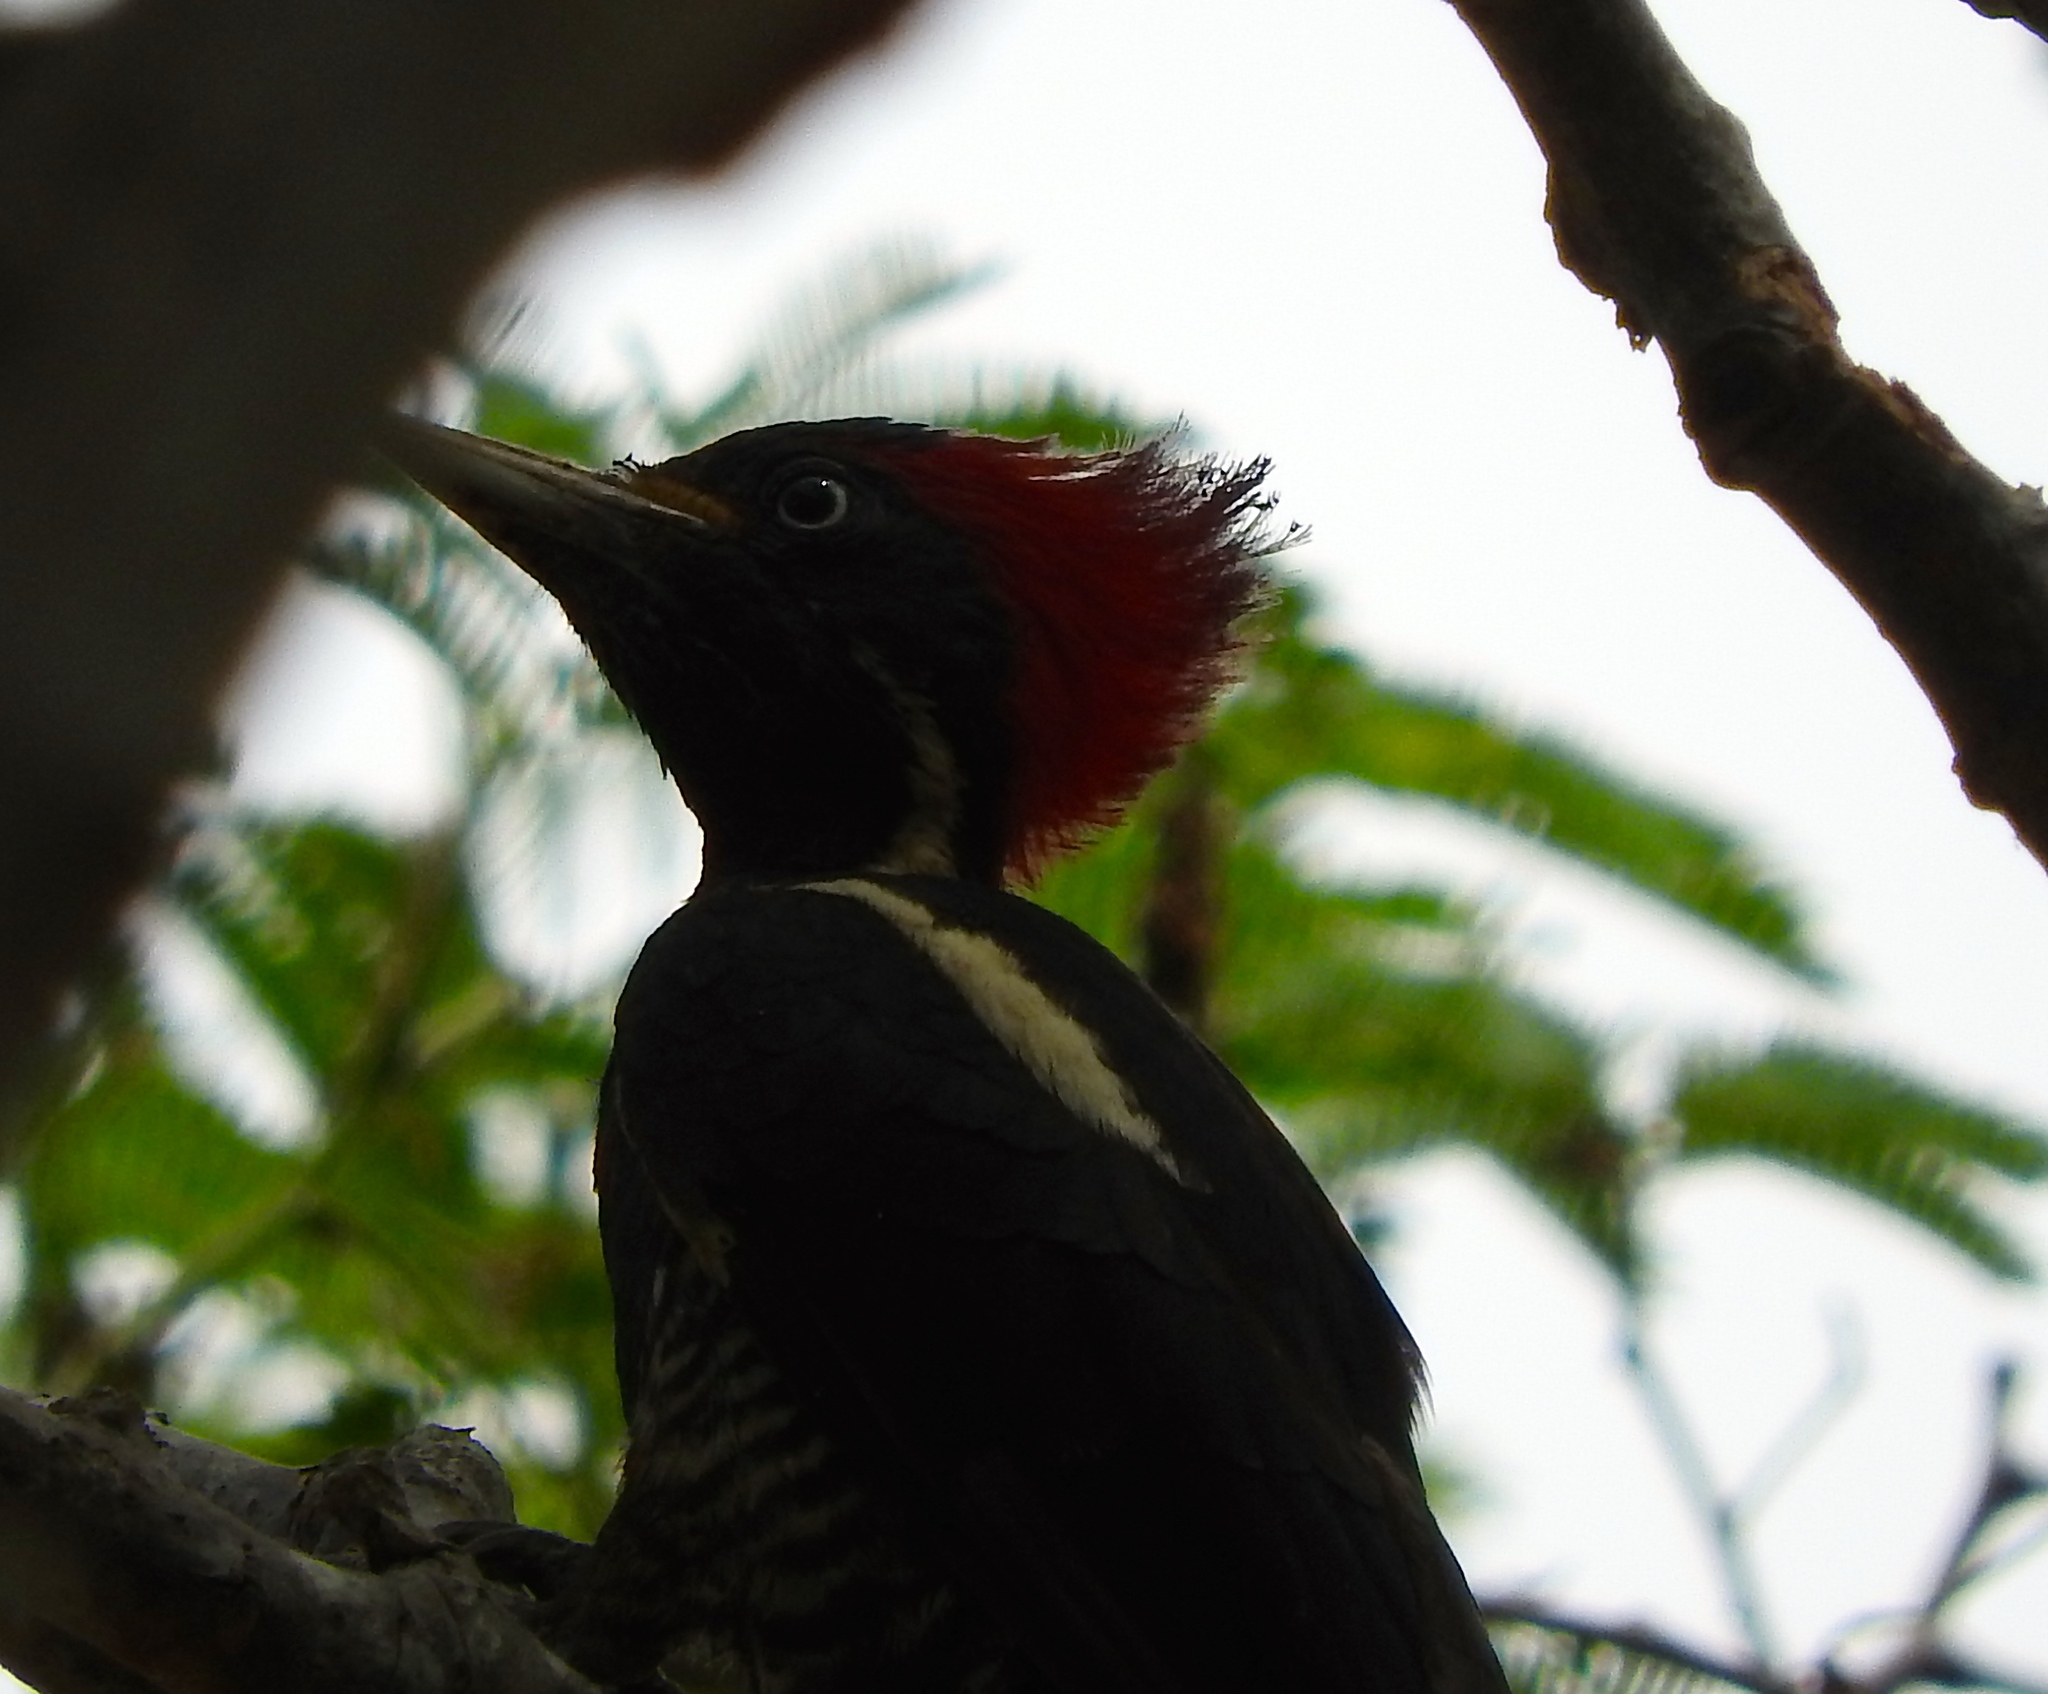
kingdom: Animalia
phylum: Chordata
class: Aves
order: Piciformes
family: Picidae
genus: Dryocopus
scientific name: Dryocopus lineatus
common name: Lineated woodpecker
